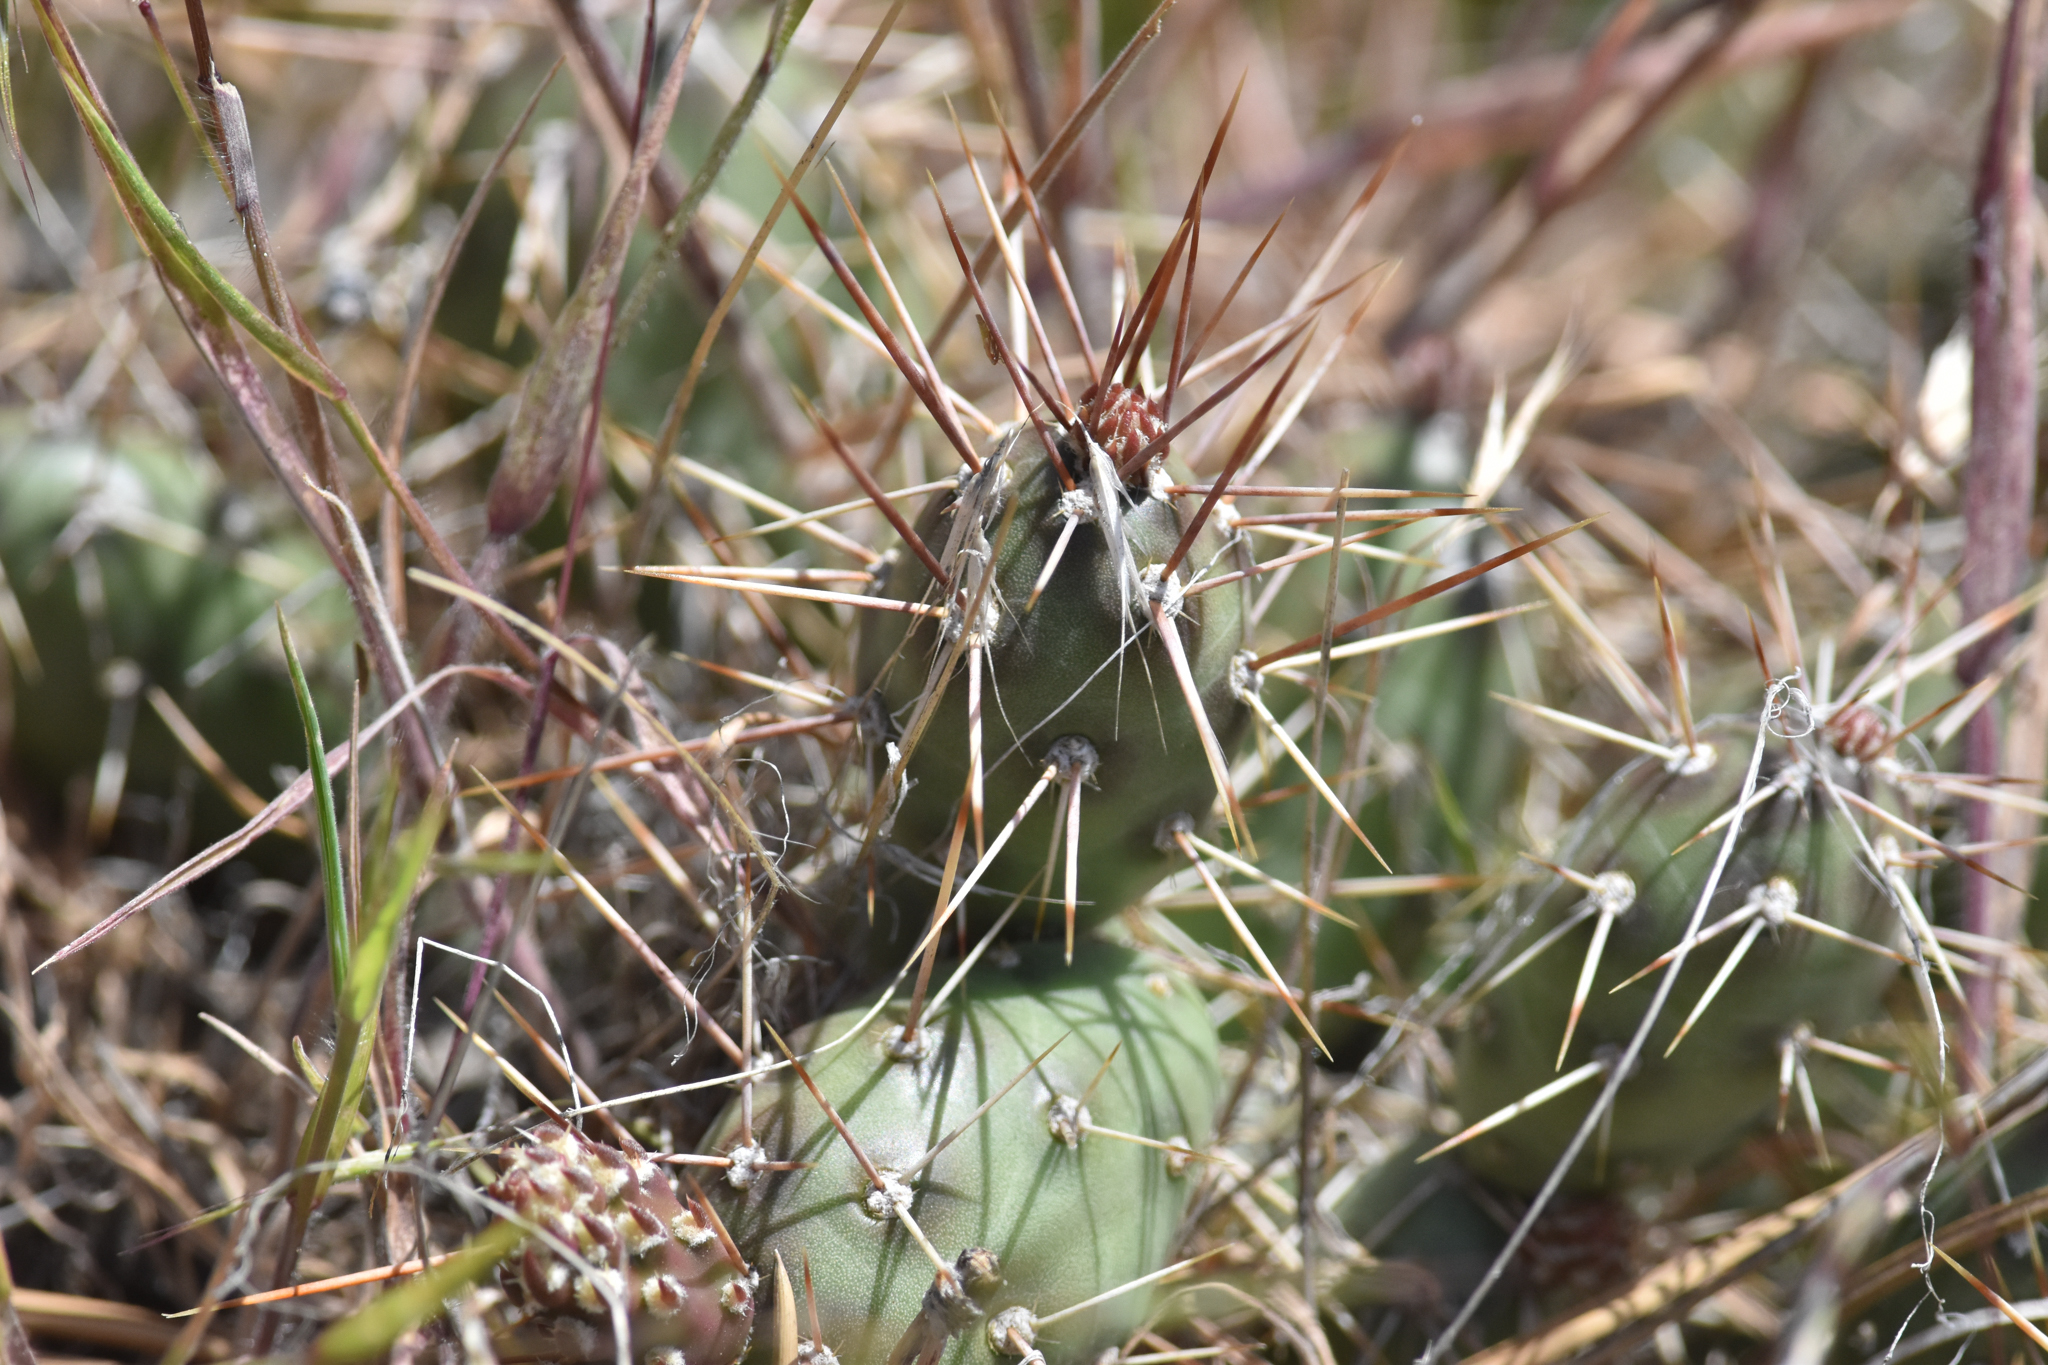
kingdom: Plantae
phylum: Tracheophyta
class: Magnoliopsida
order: Caryophyllales
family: Cactaceae
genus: Opuntia
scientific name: Opuntia fragilis
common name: Brittle cactus
